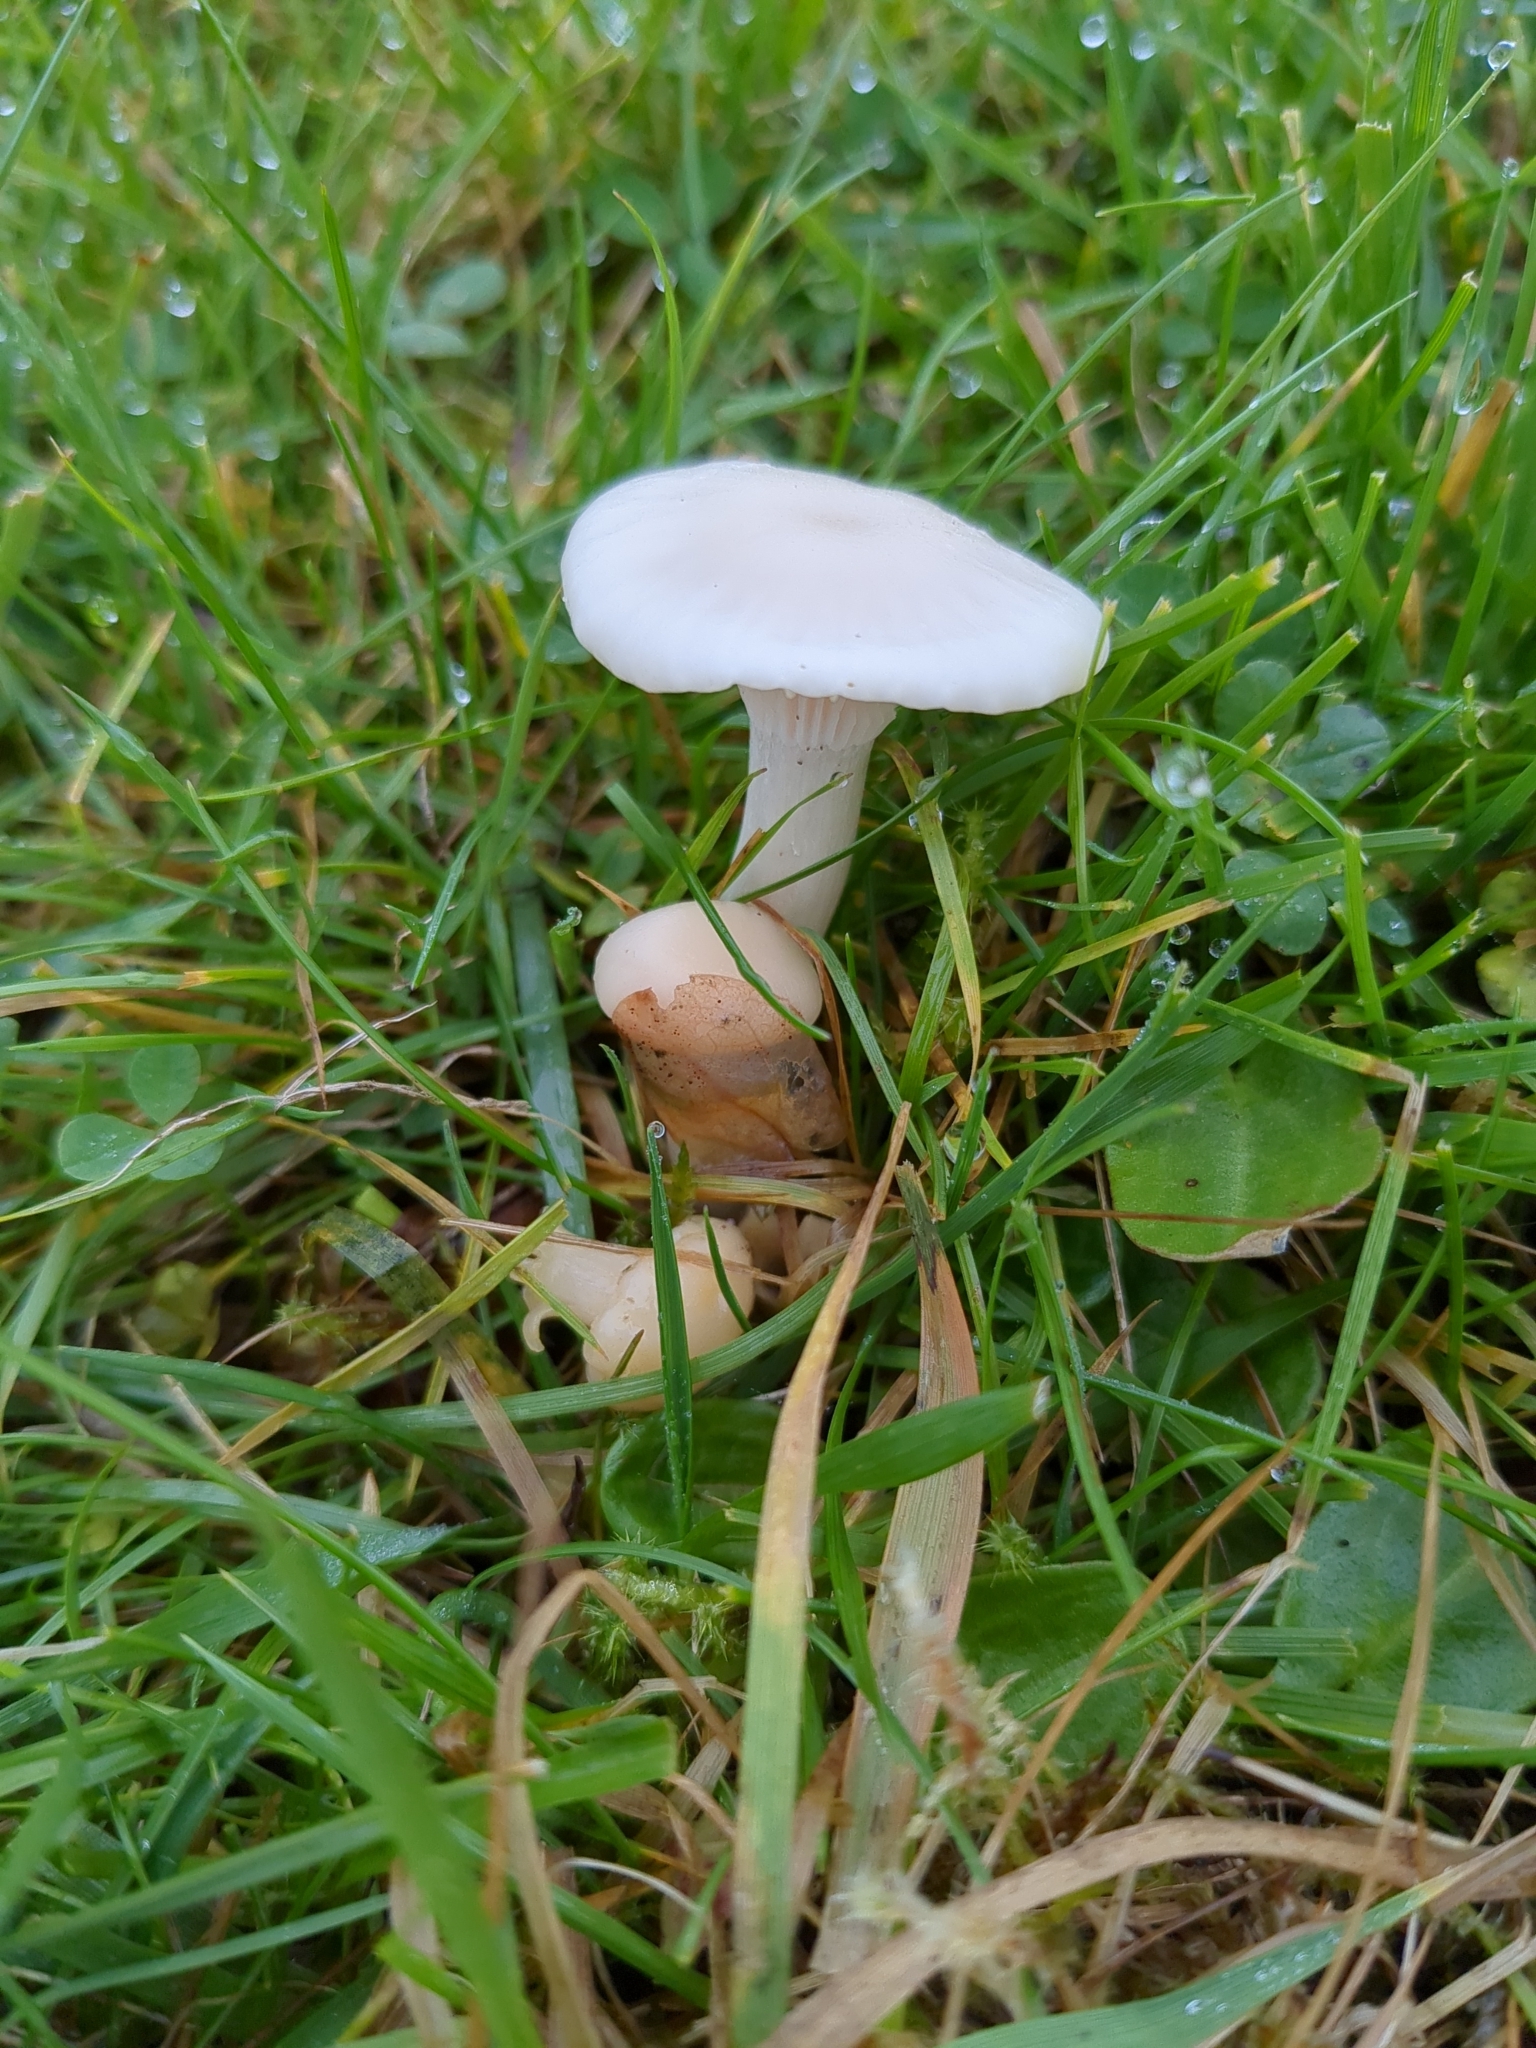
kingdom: Fungi
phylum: Basidiomycota
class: Agaricomycetes
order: Agaricales
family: Hygrophoraceae
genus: Cuphophyllus
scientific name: Cuphophyllus virgineus
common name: Snowy waxcap
